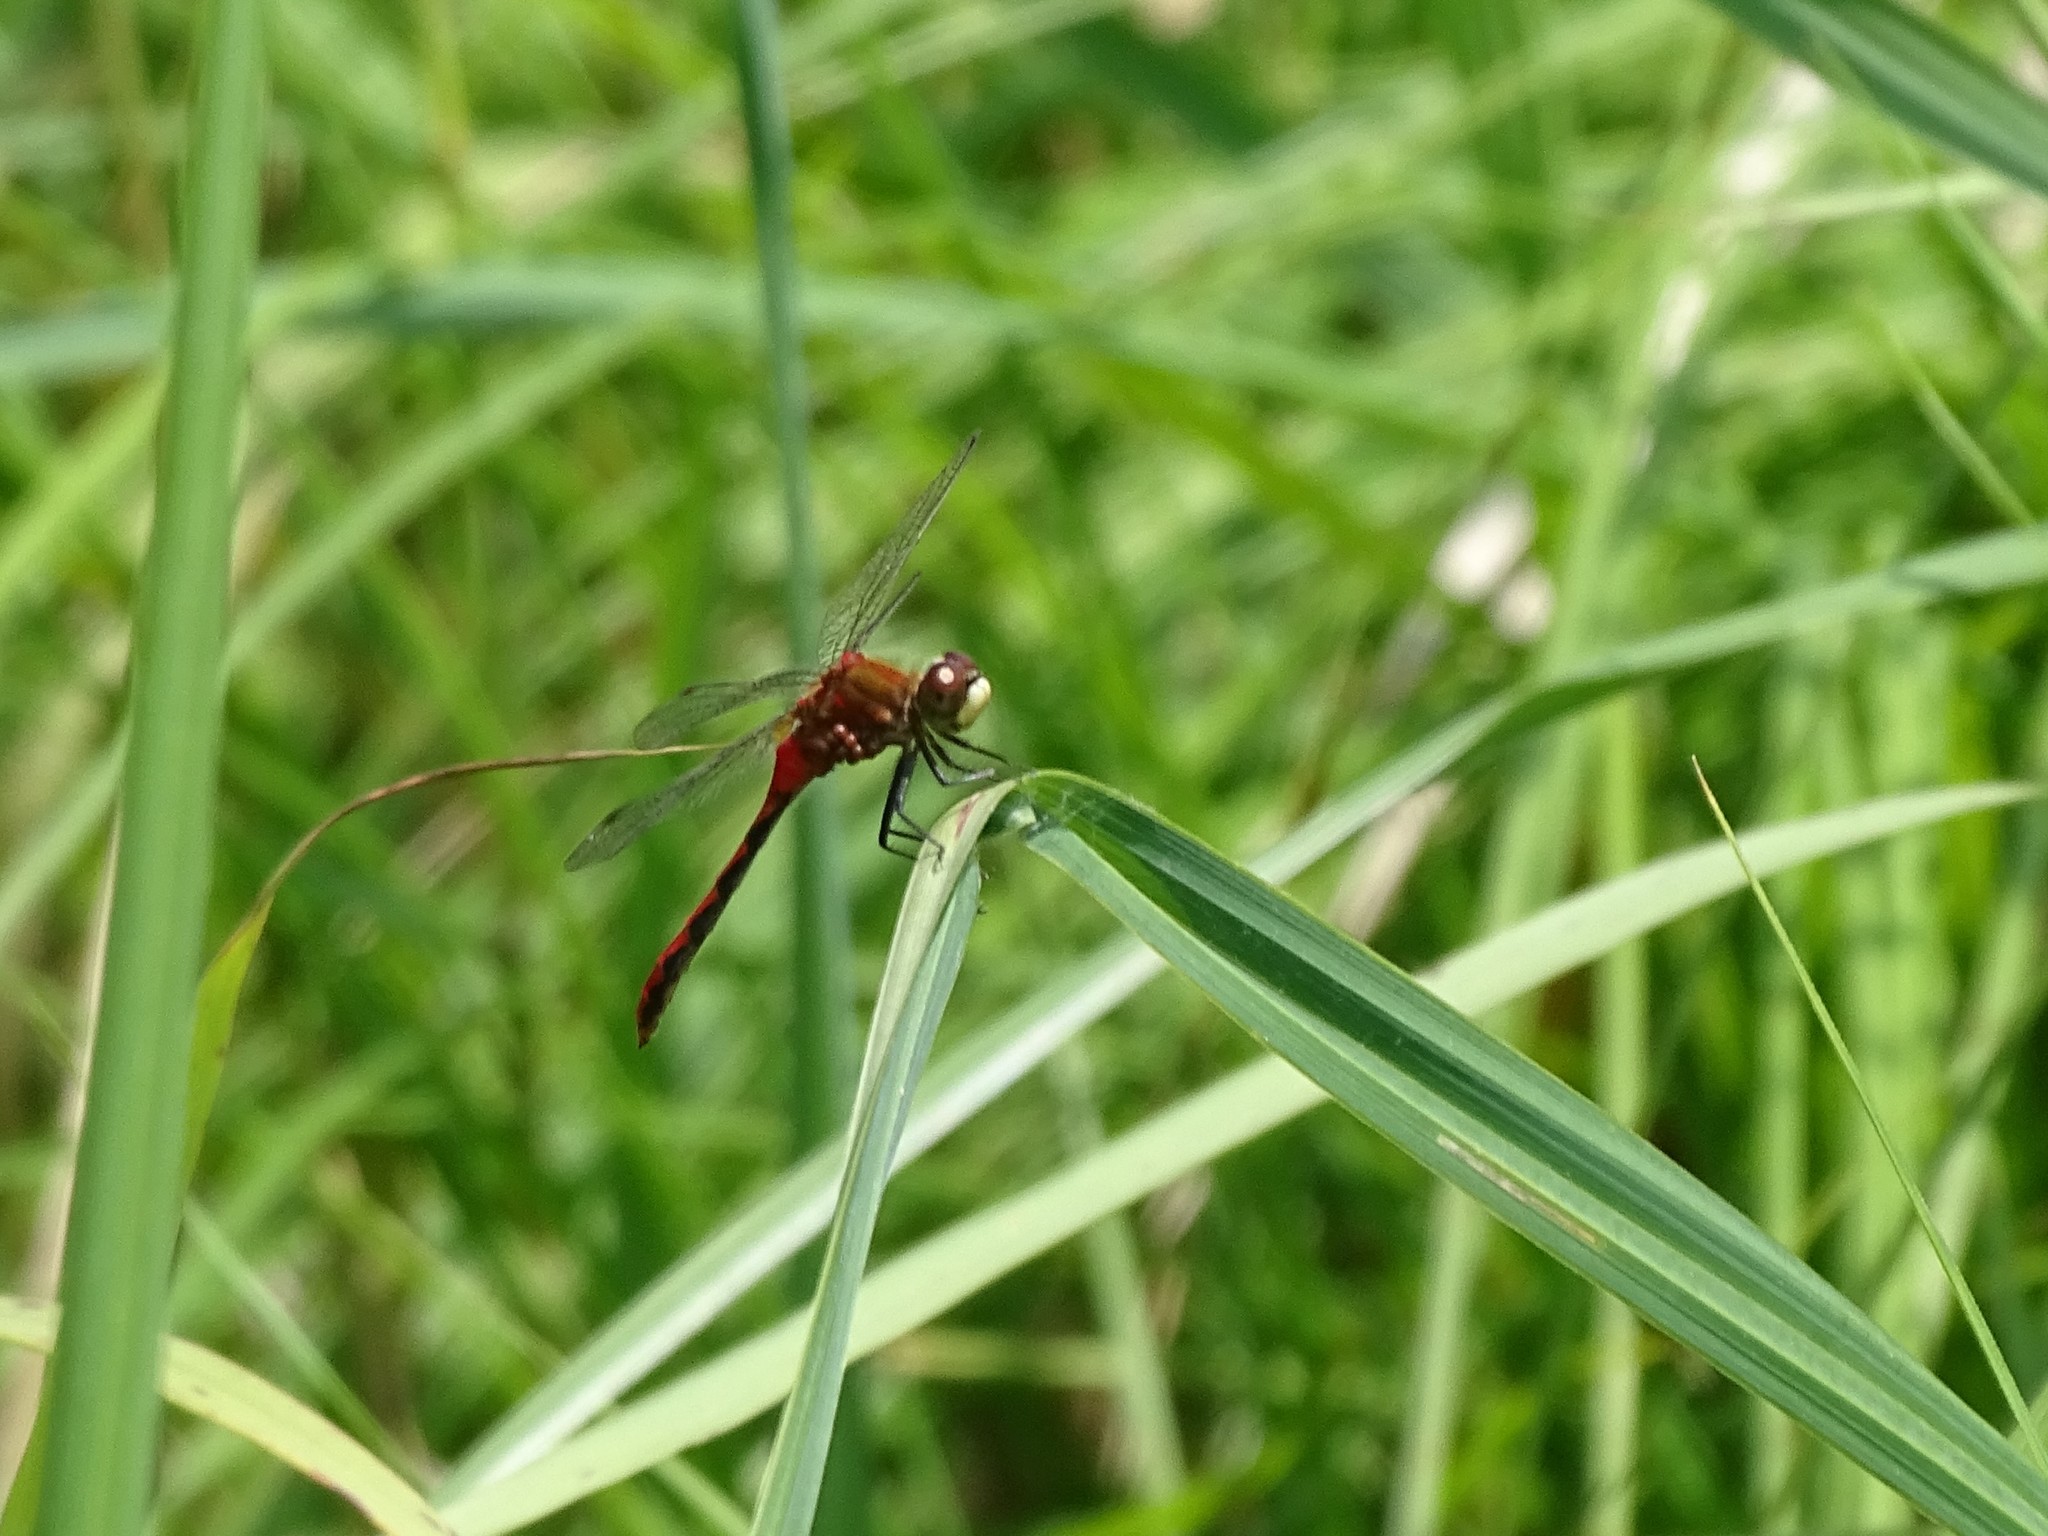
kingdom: Animalia
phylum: Arthropoda
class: Insecta
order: Odonata
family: Libellulidae
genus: Sympetrum
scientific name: Sympetrum obtrusum
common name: White-faced meadowhawk
